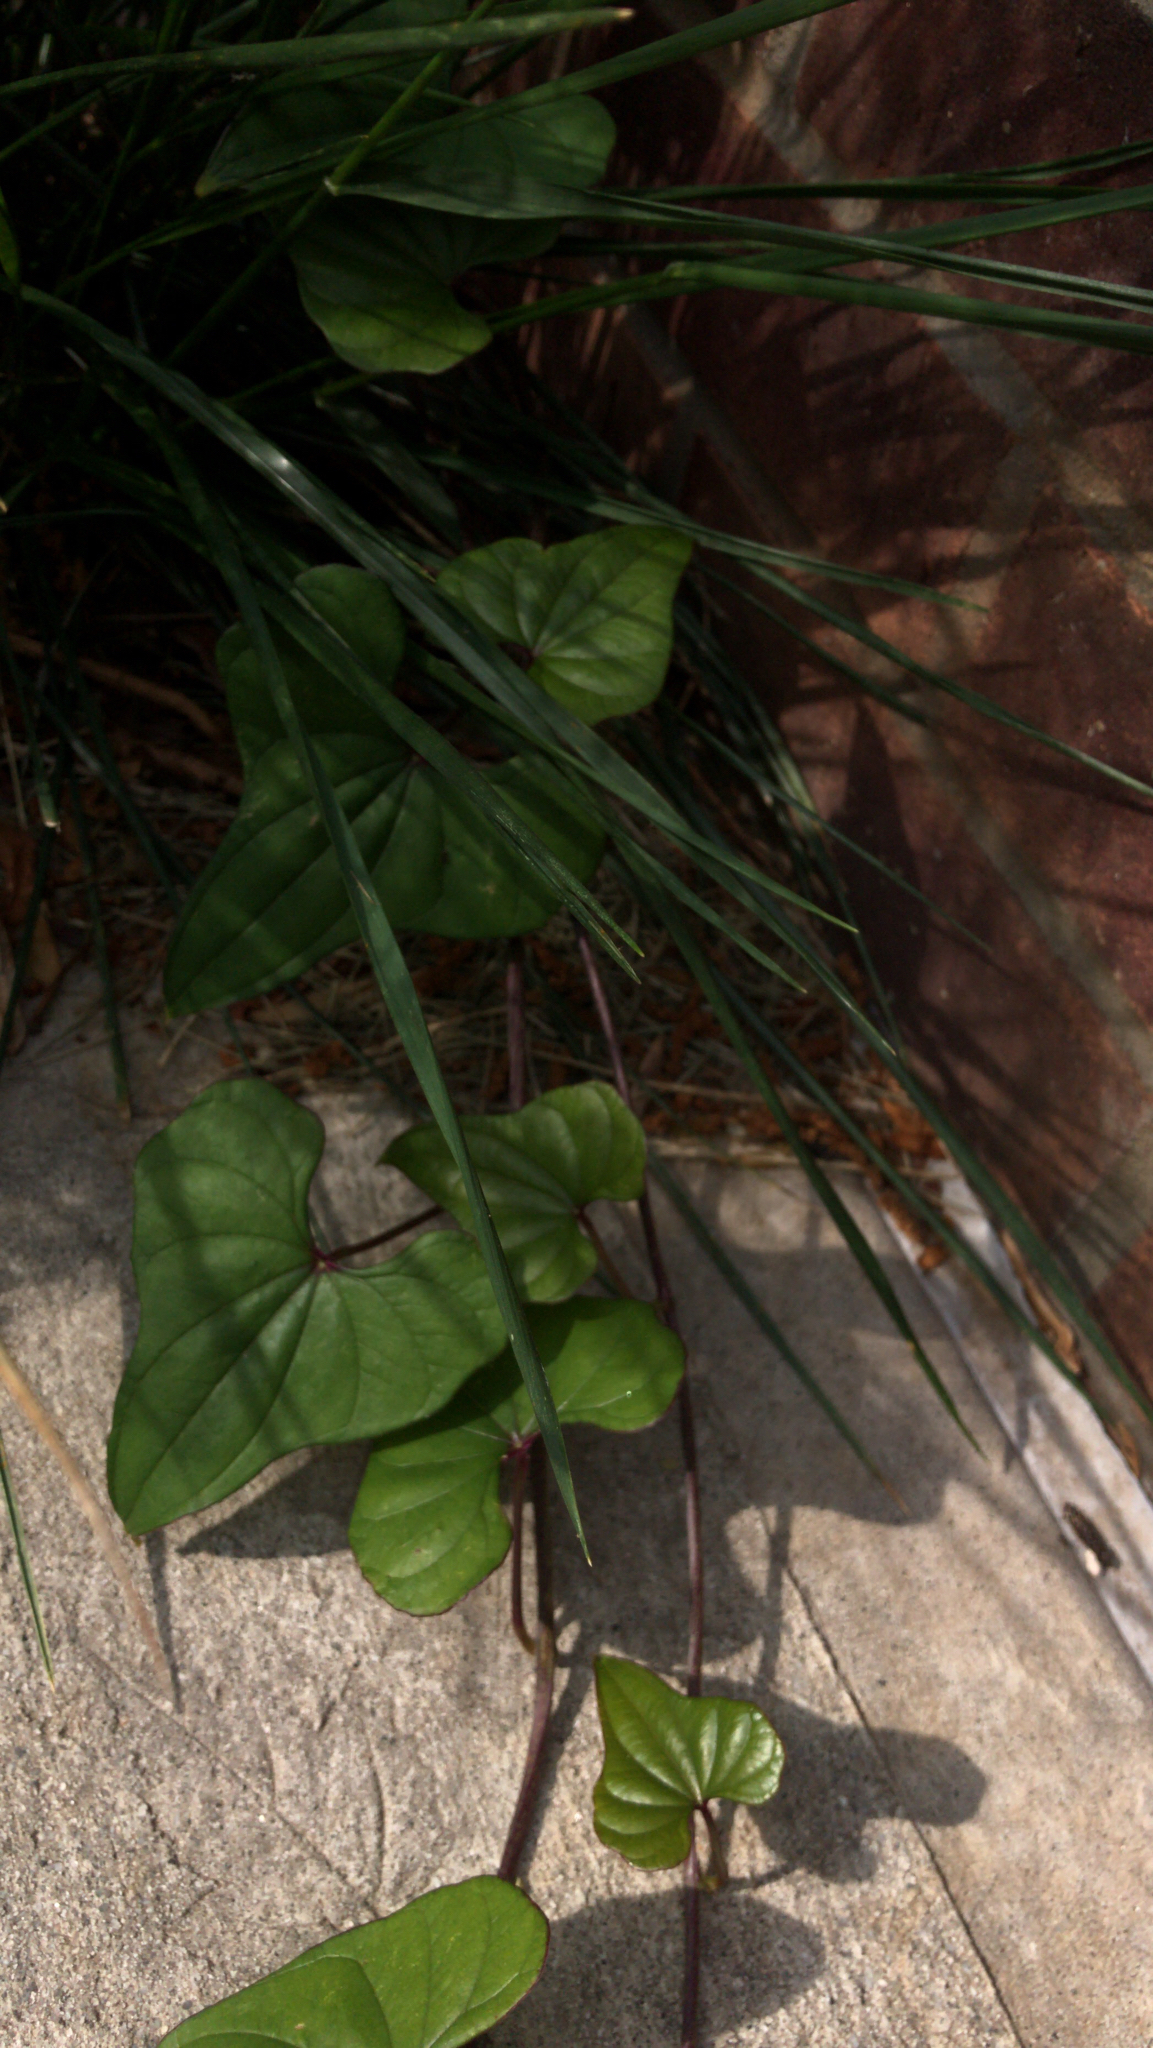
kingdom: Plantae
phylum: Tracheophyta
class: Liliopsida
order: Dioscoreales
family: Dioscoreaceae
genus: Dioscorea
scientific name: Dioscorea polystachya
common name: Chinese yam
